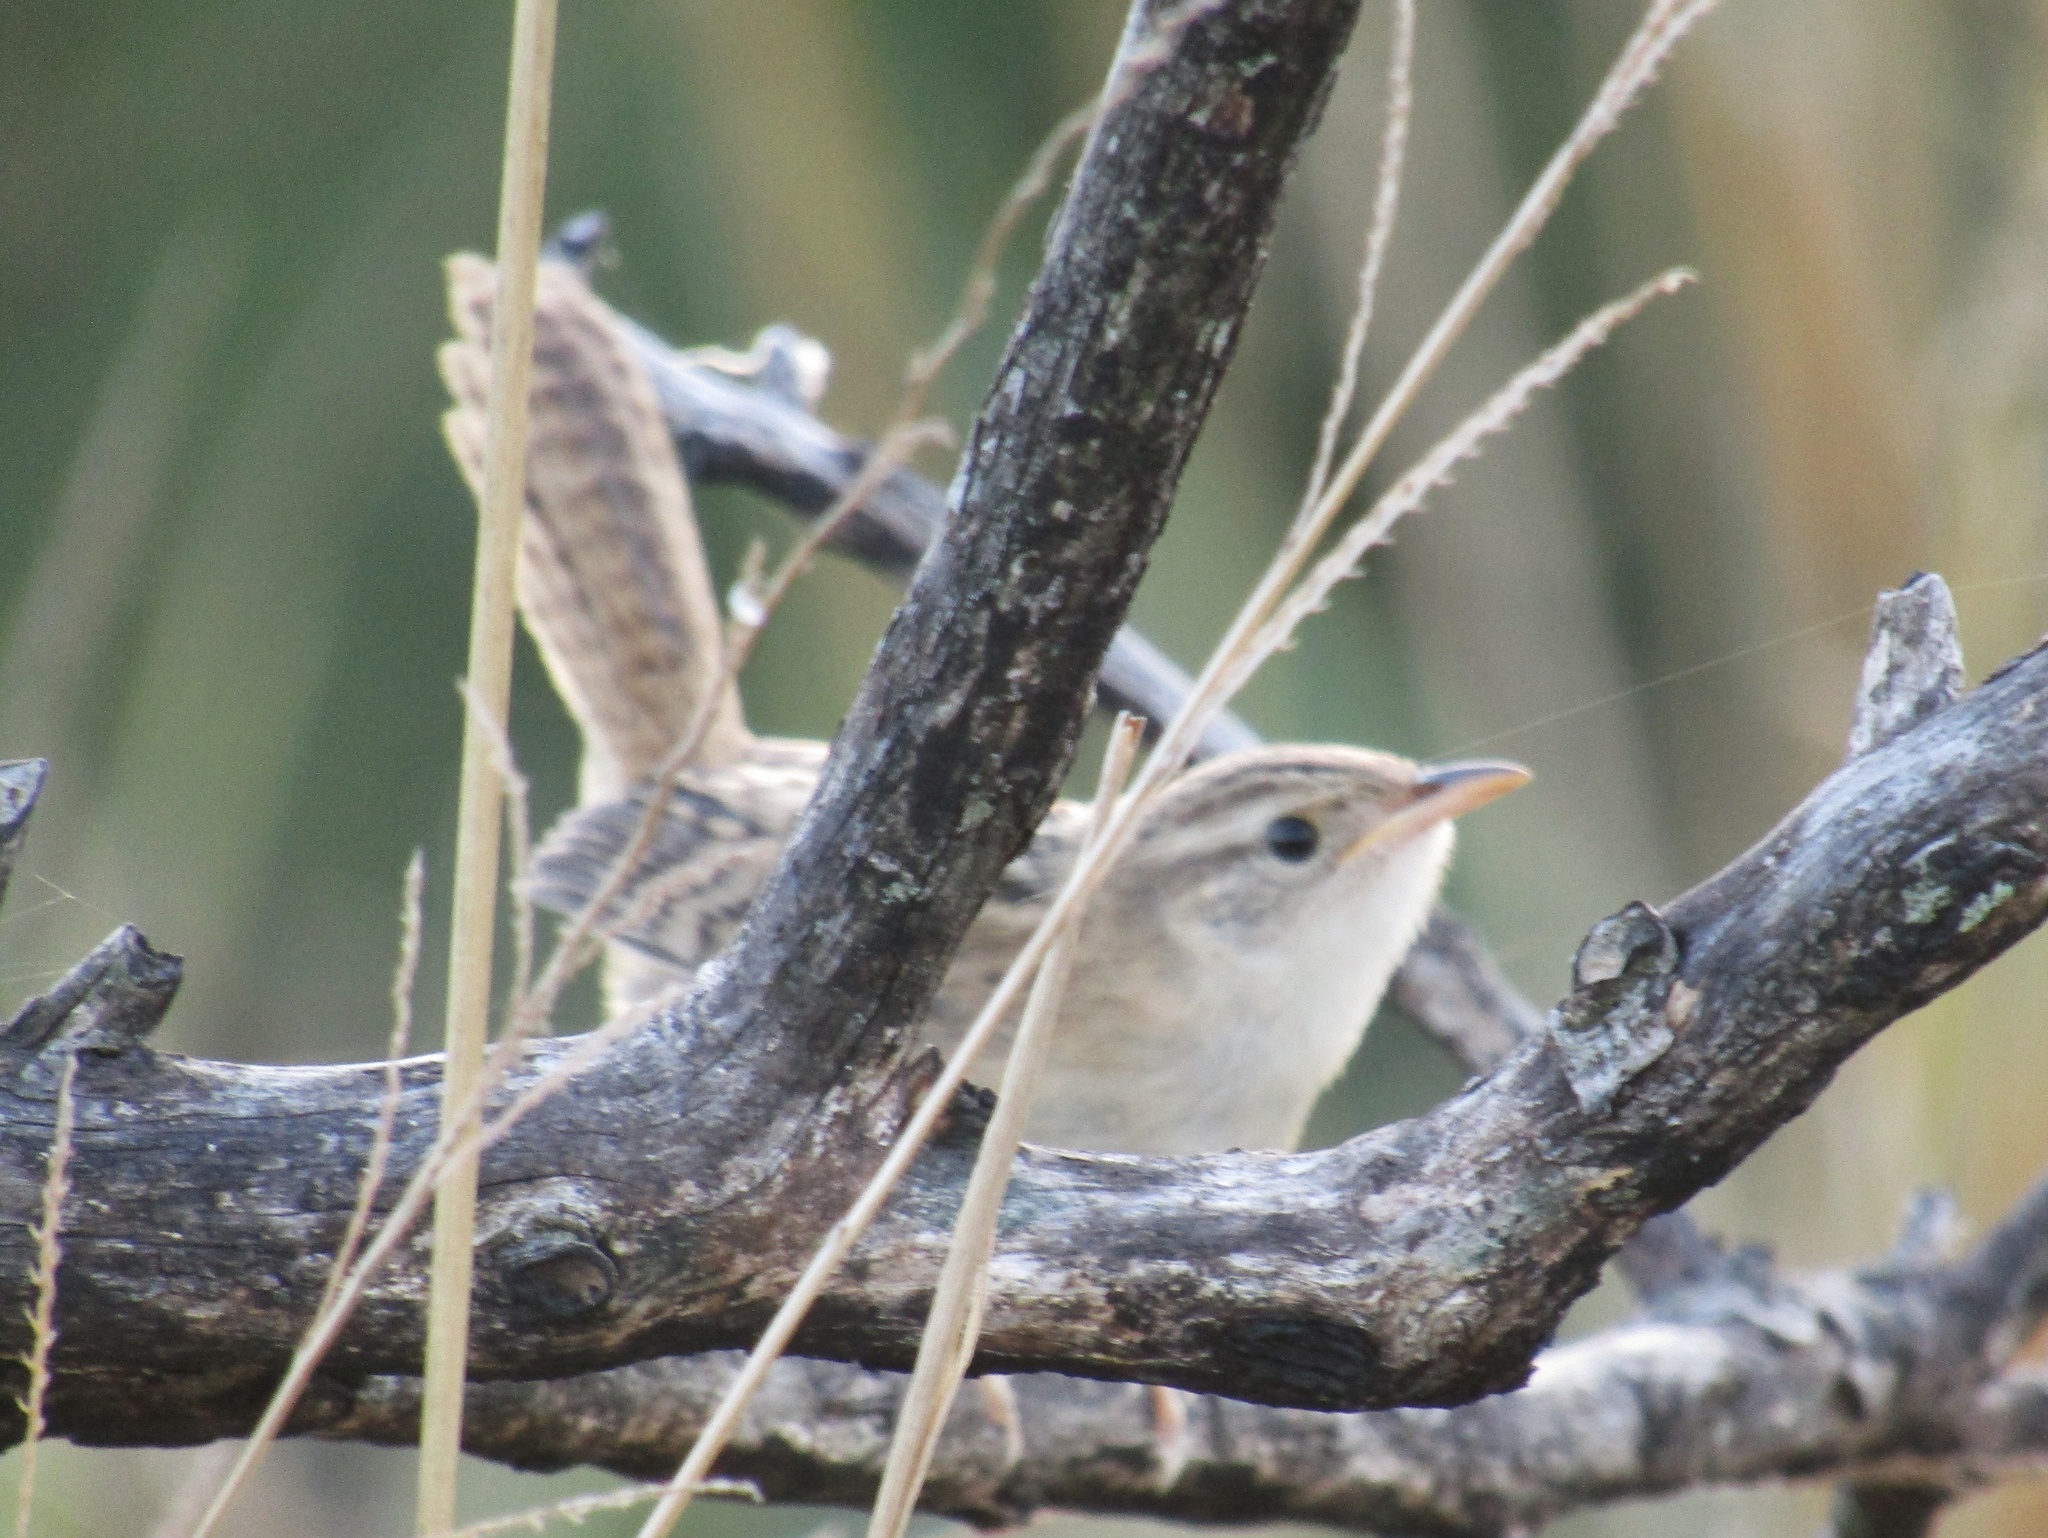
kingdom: Animalia
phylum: Chordata
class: Aves
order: Passeriformes
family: Troglodytidae
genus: Cistothorus
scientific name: Cistothorus platensis
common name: Sedge wren
